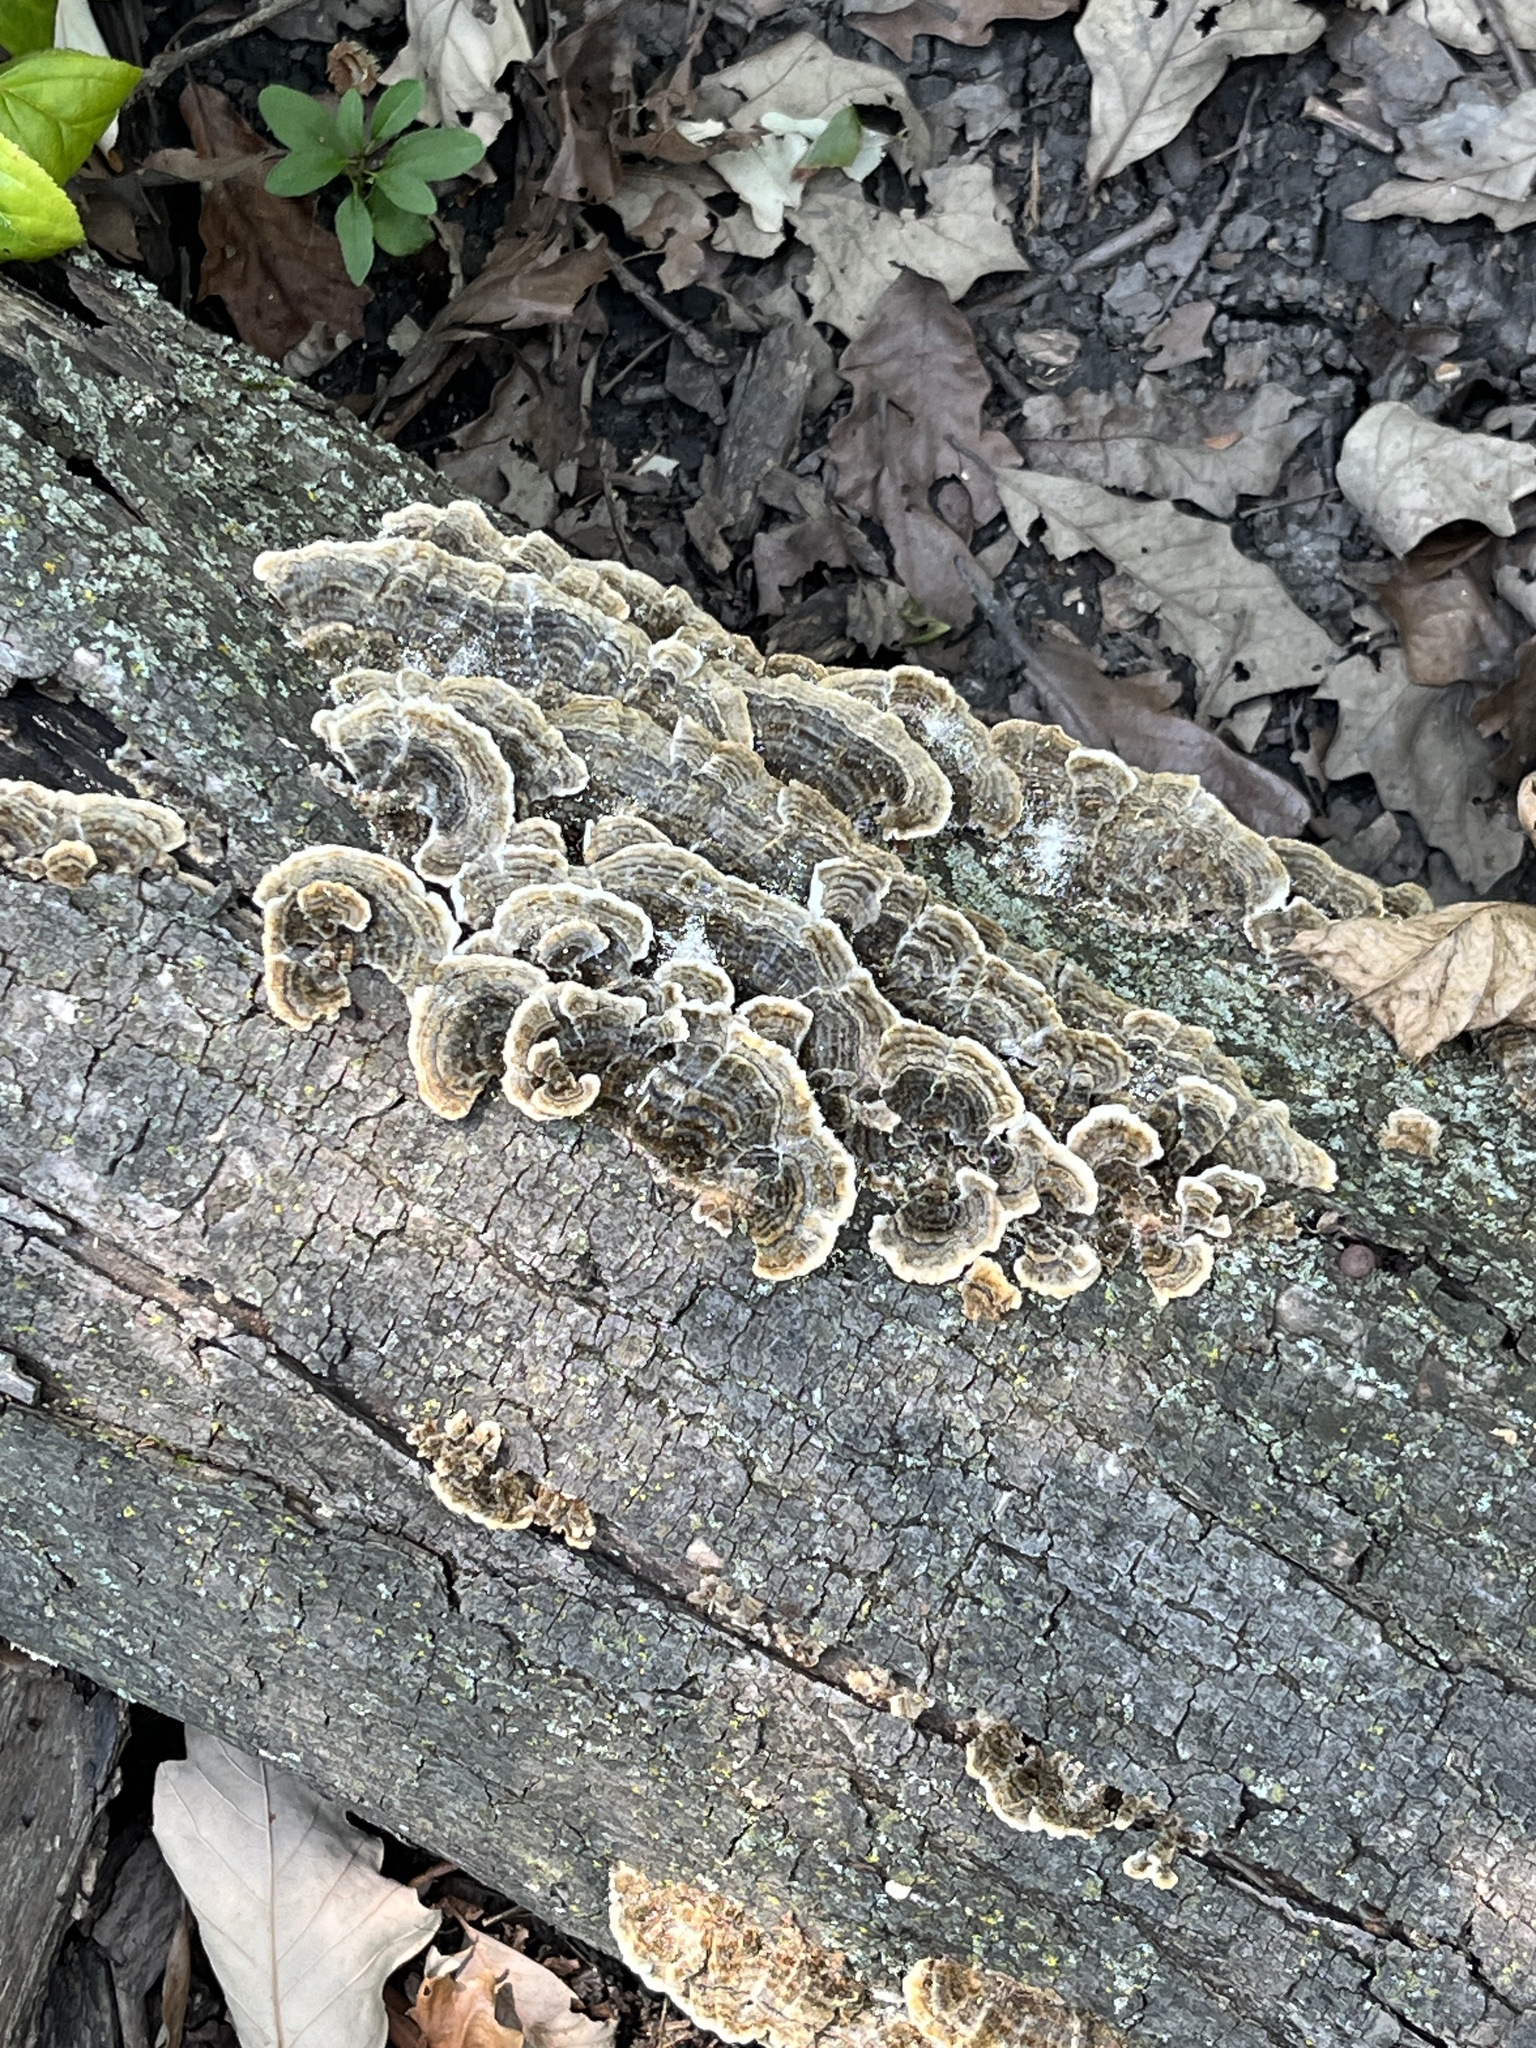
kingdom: Fungi
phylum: Basidiomycota
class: Agaricomycetes
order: Polyporales
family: Polyporaceae
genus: Trametes
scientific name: Trametes versicolor
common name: Turkeytail
